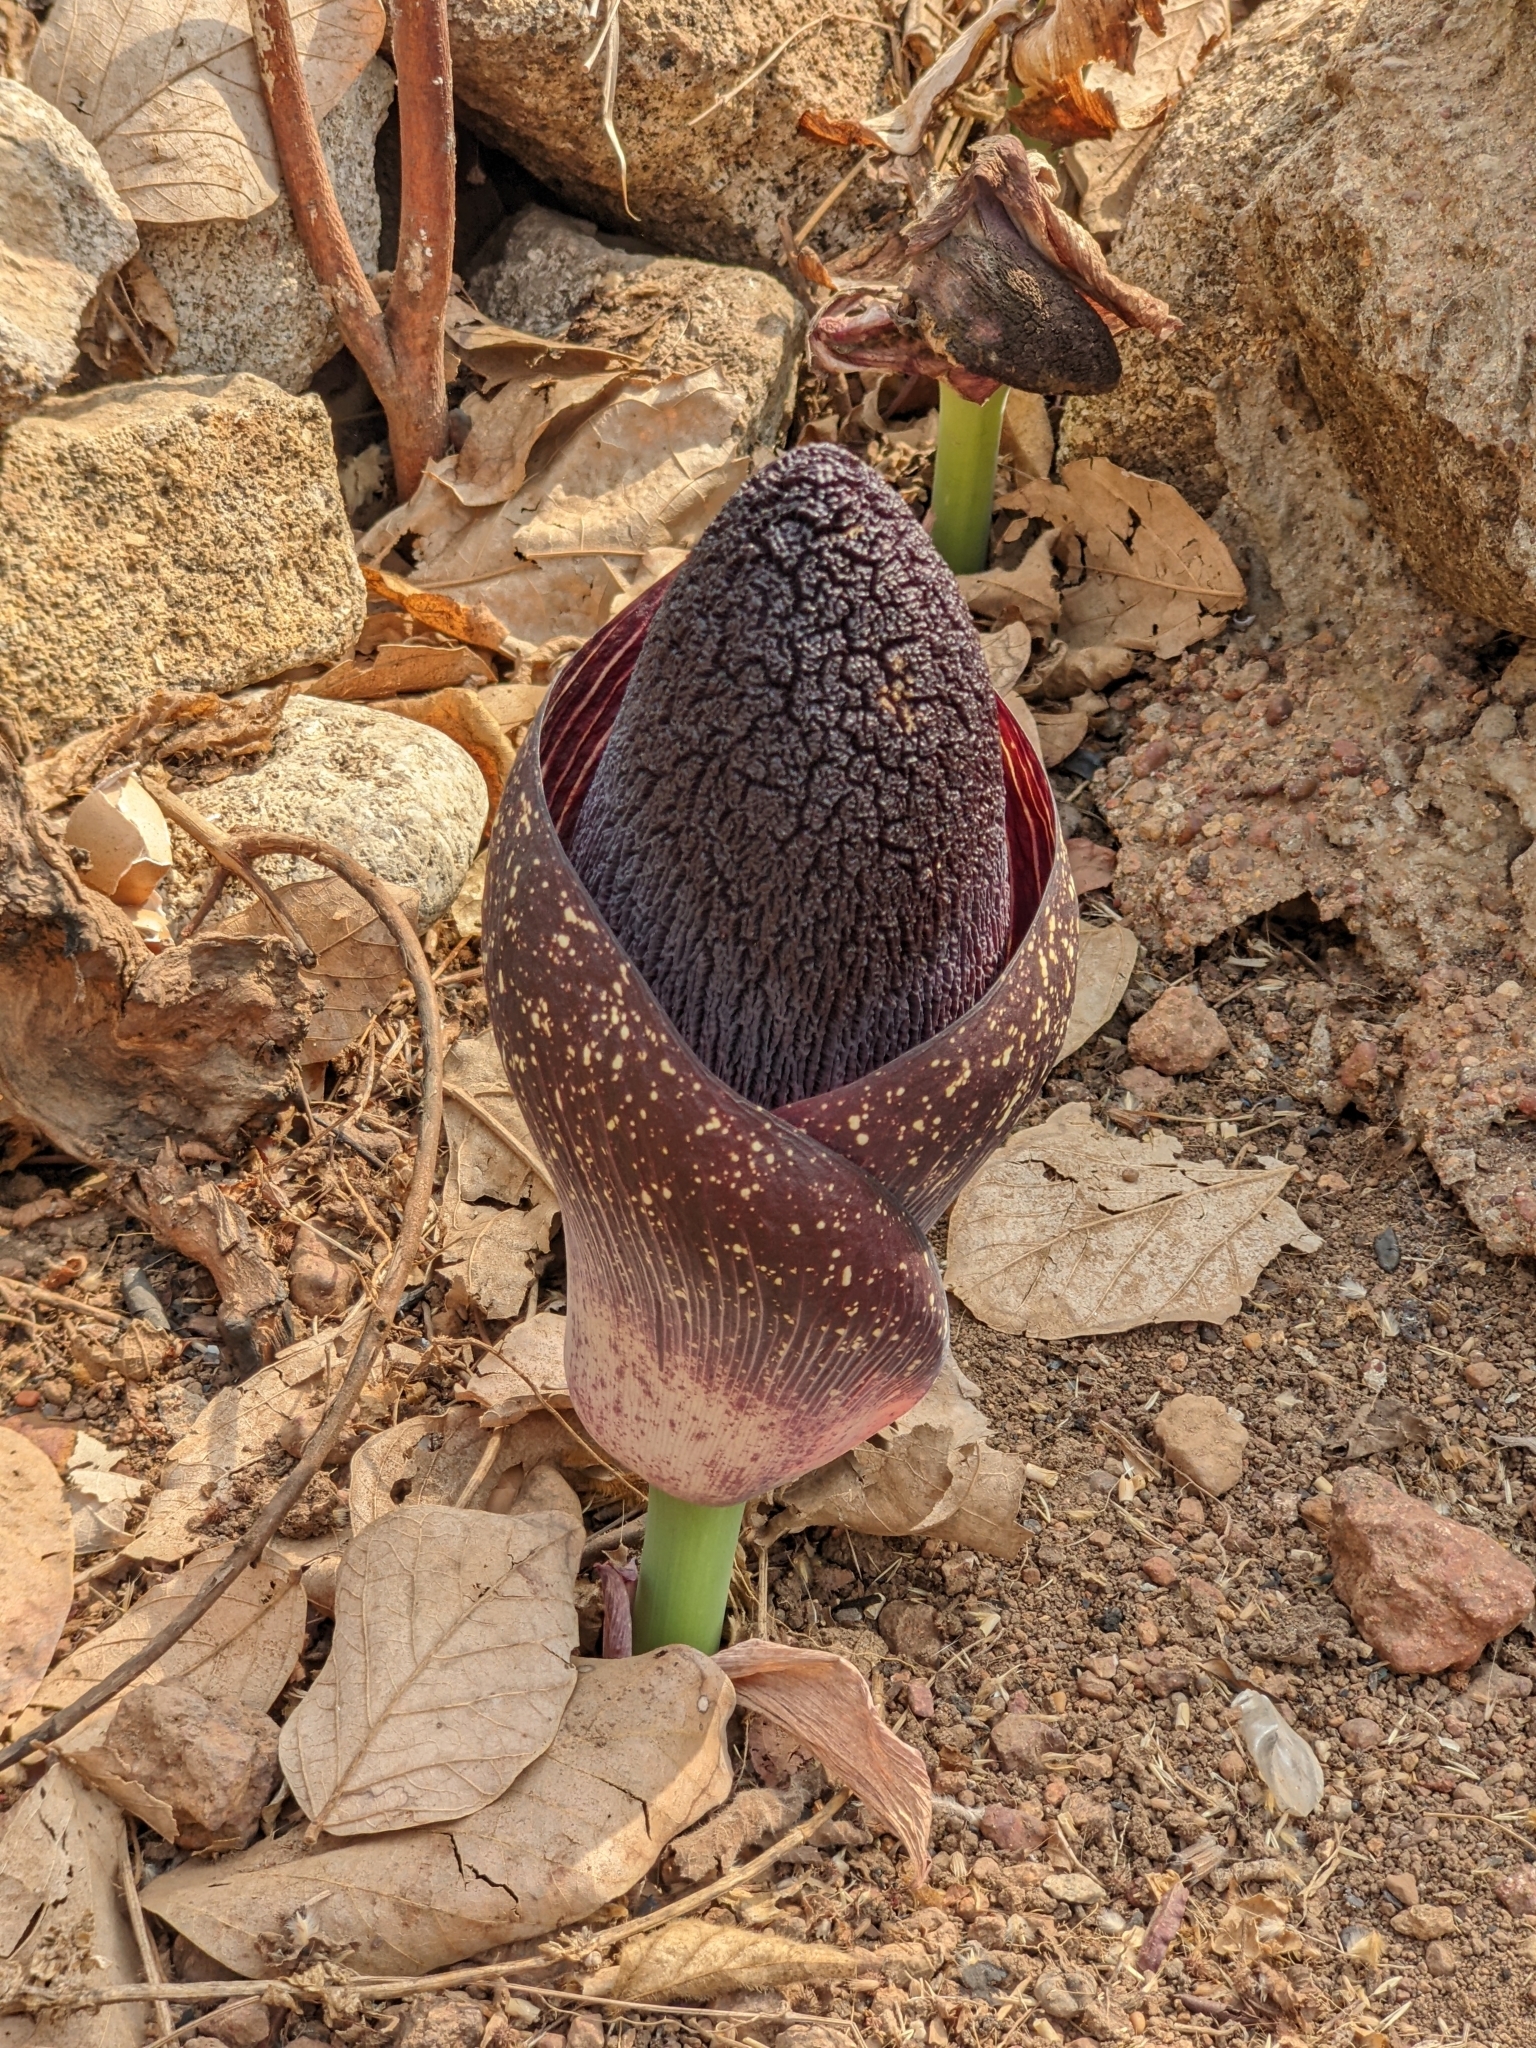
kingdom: Plantae
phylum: Tracheophyta
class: Liliopsida
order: Alismatales
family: Araceae
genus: Amorphophallus
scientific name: Amorphophallus aphyllus
